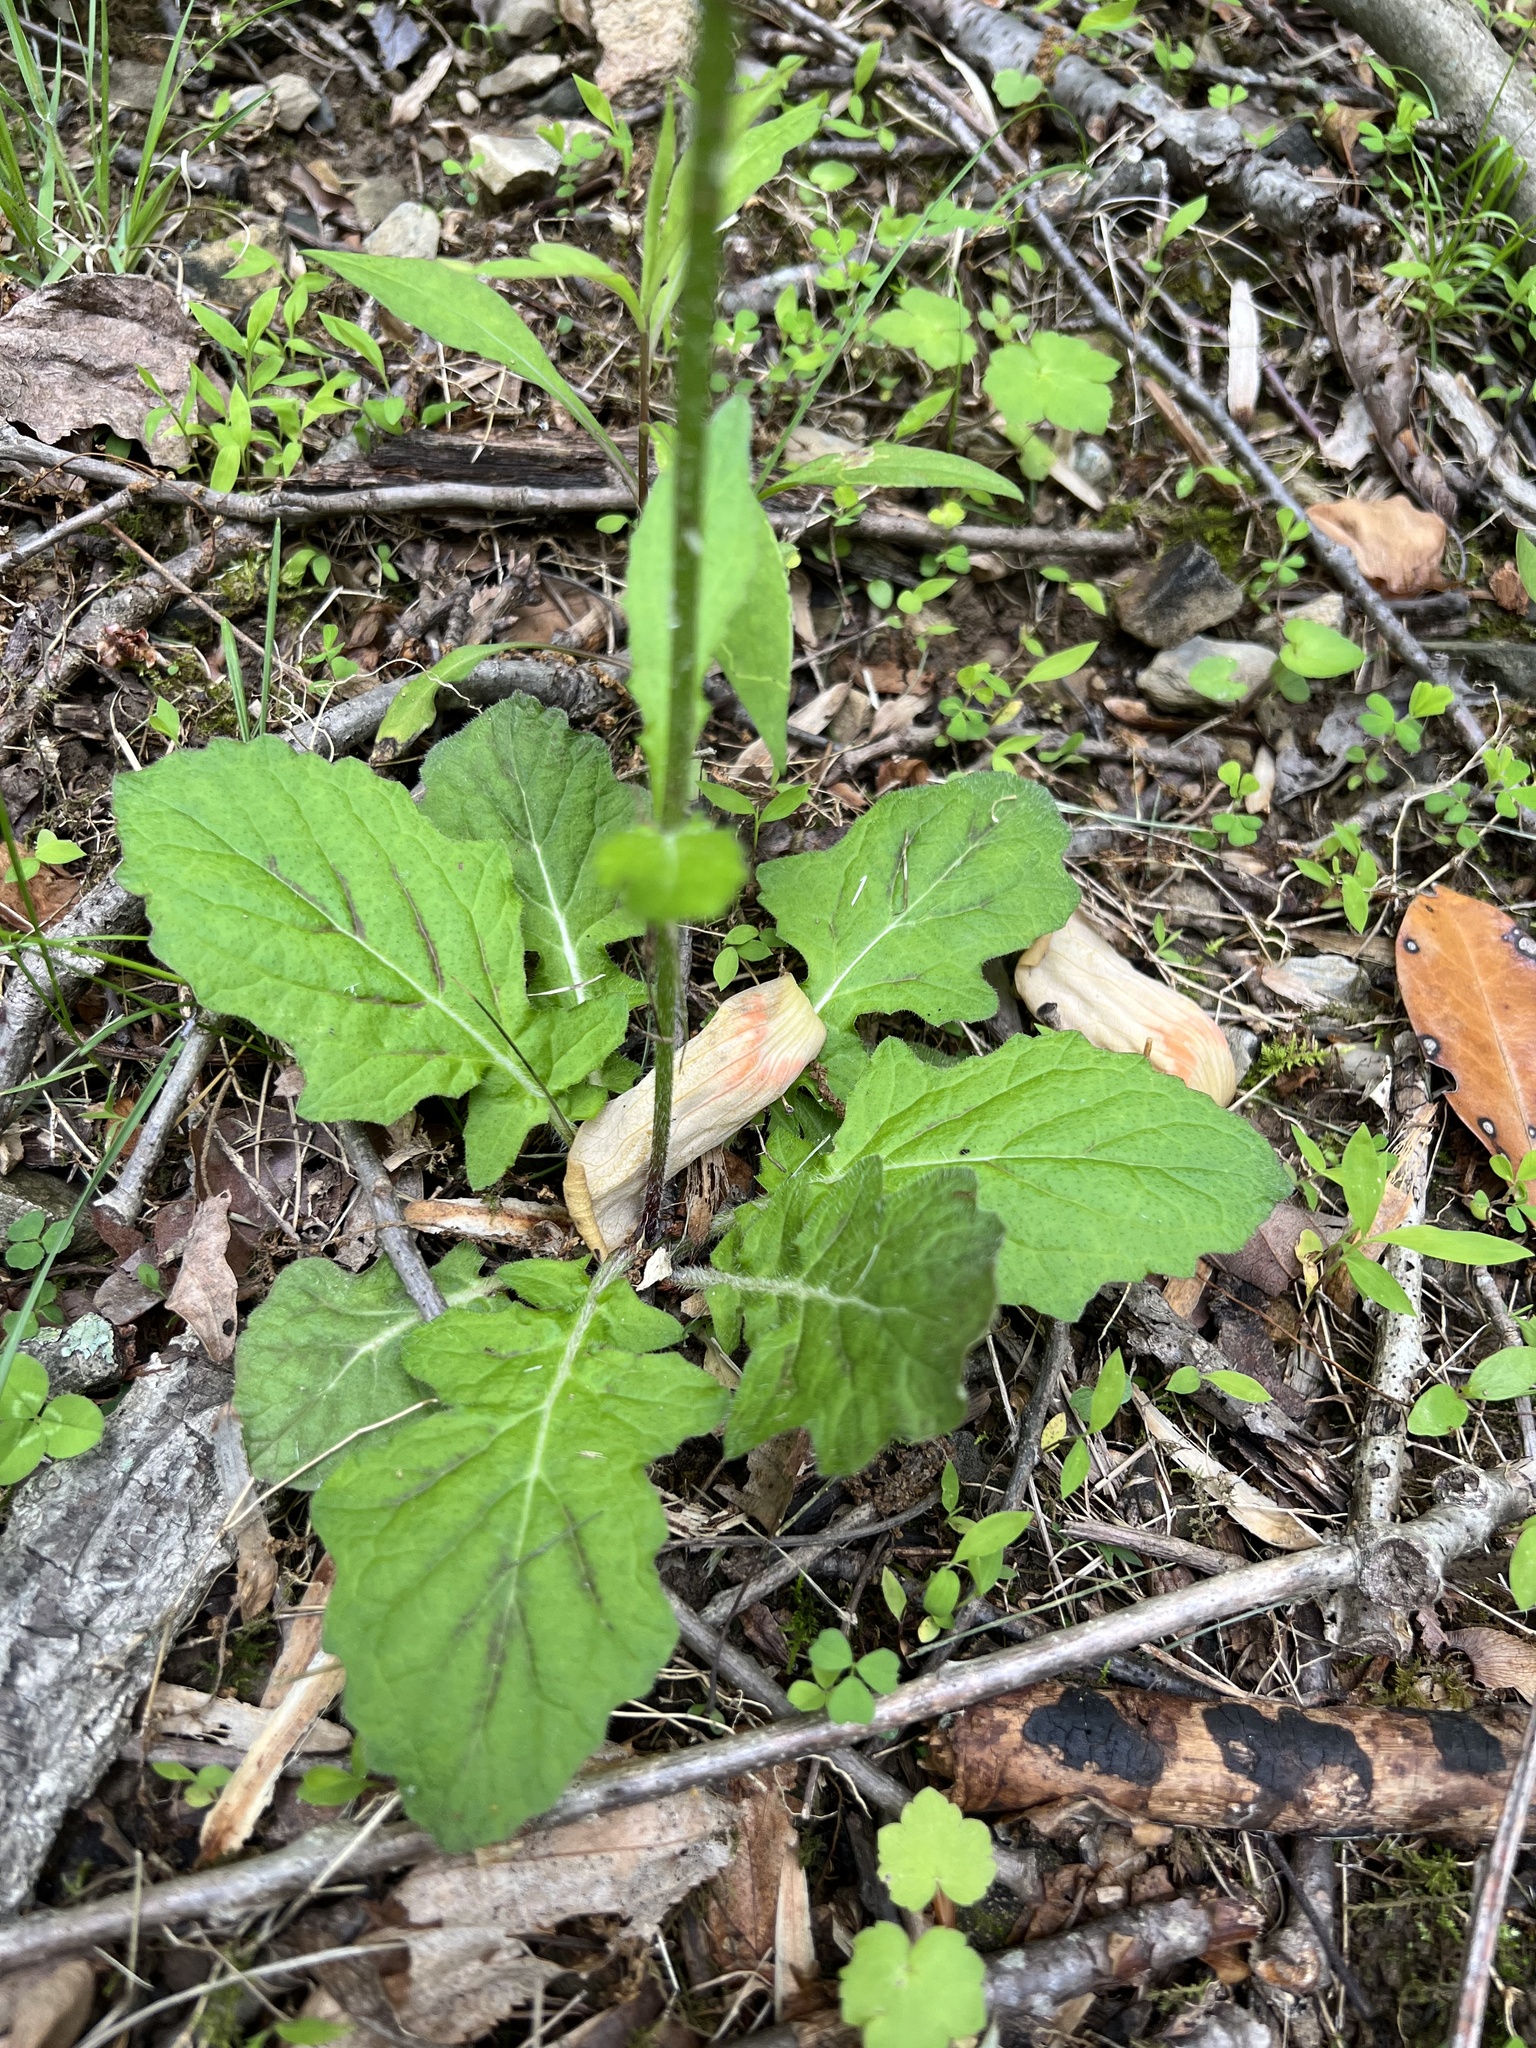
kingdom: Plantae
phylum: Tracheophyta
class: Magnoliopsida
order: Lamiales
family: Lamiaceae
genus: Salvia
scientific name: Salvia lyrata
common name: Cancerweed
